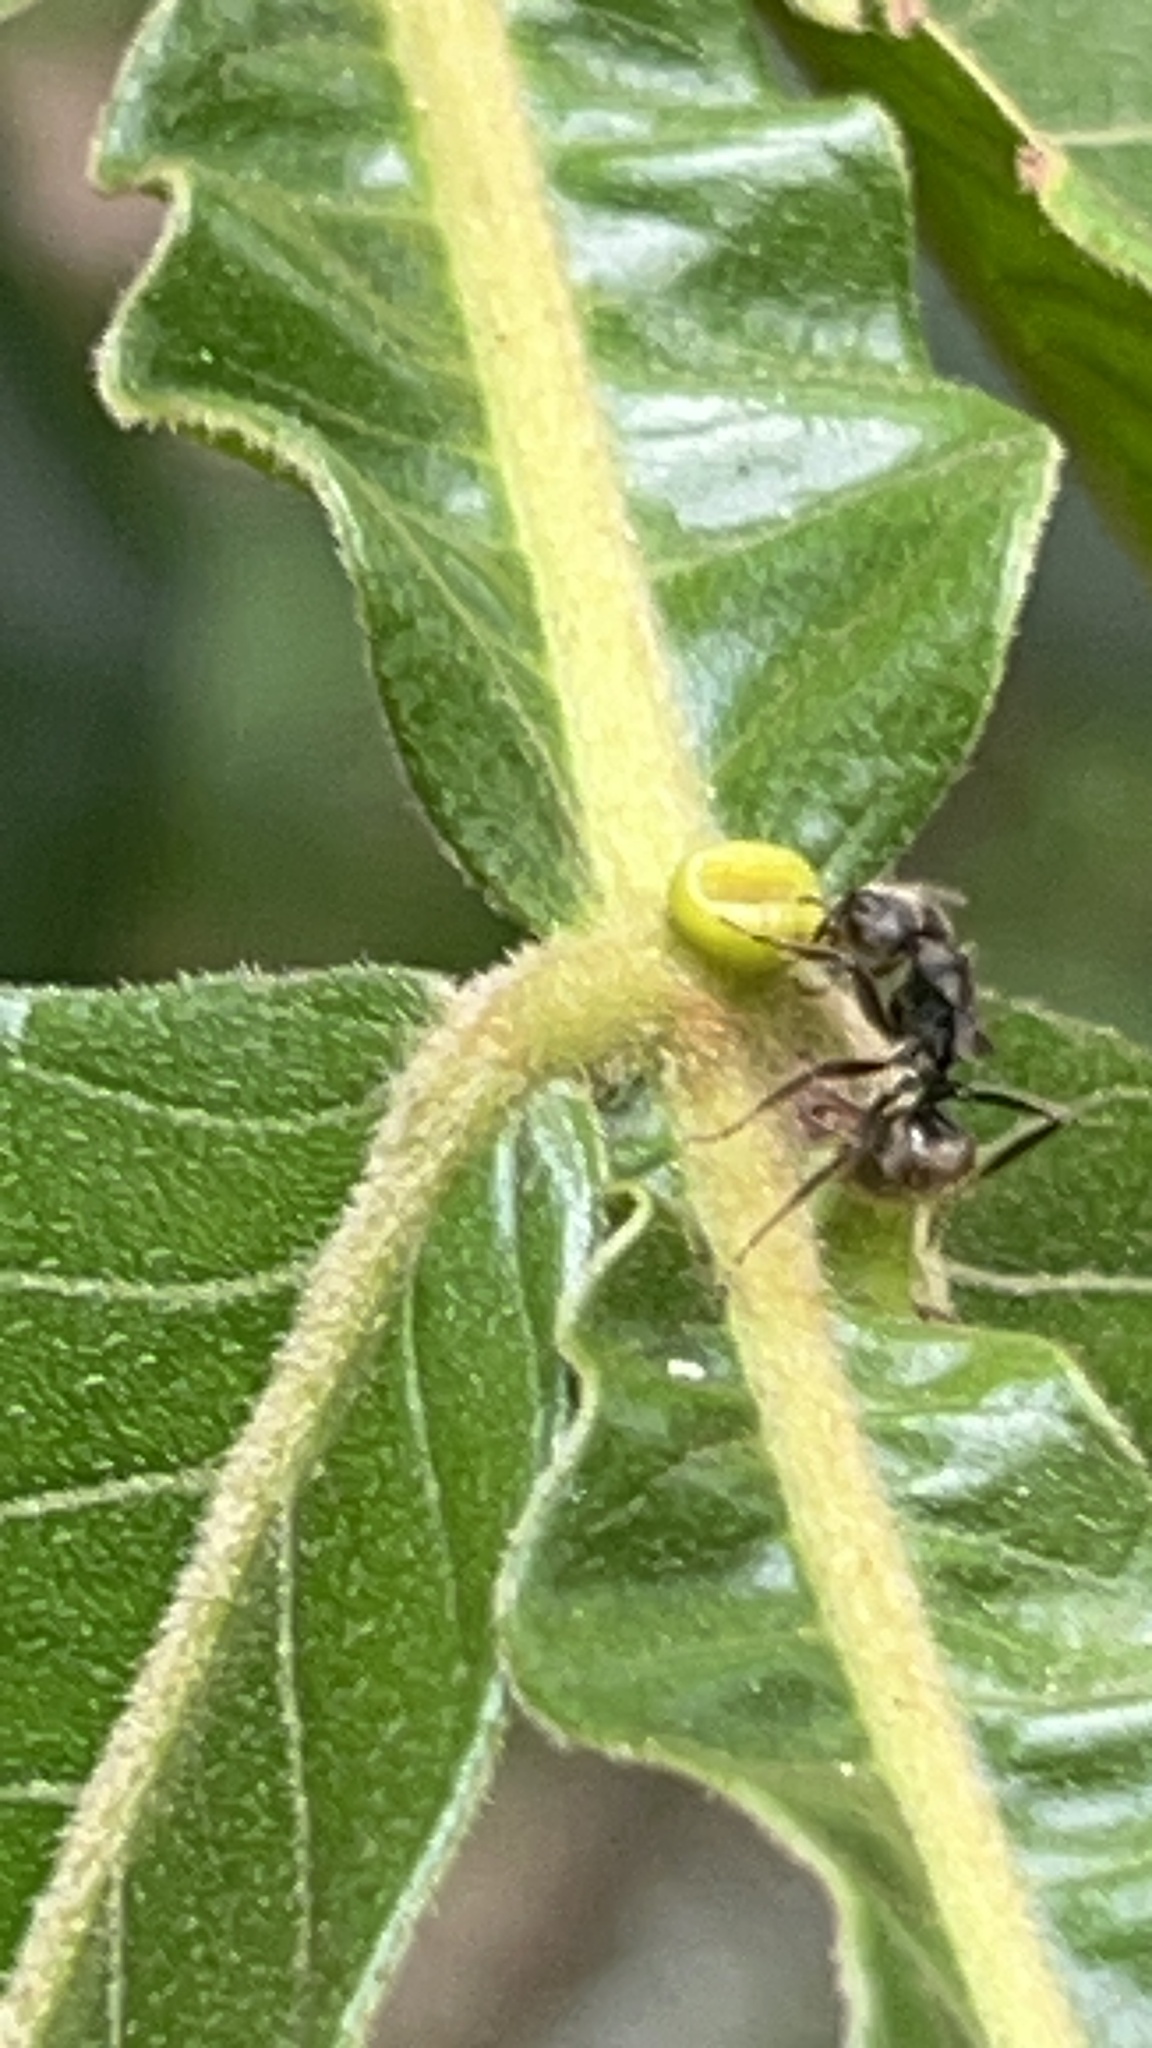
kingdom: Animalia
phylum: Arthropoda
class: Insecta
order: Hymenoptera
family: Formicidae
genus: Dolichoderus
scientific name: Dolichoderus bispinosus
